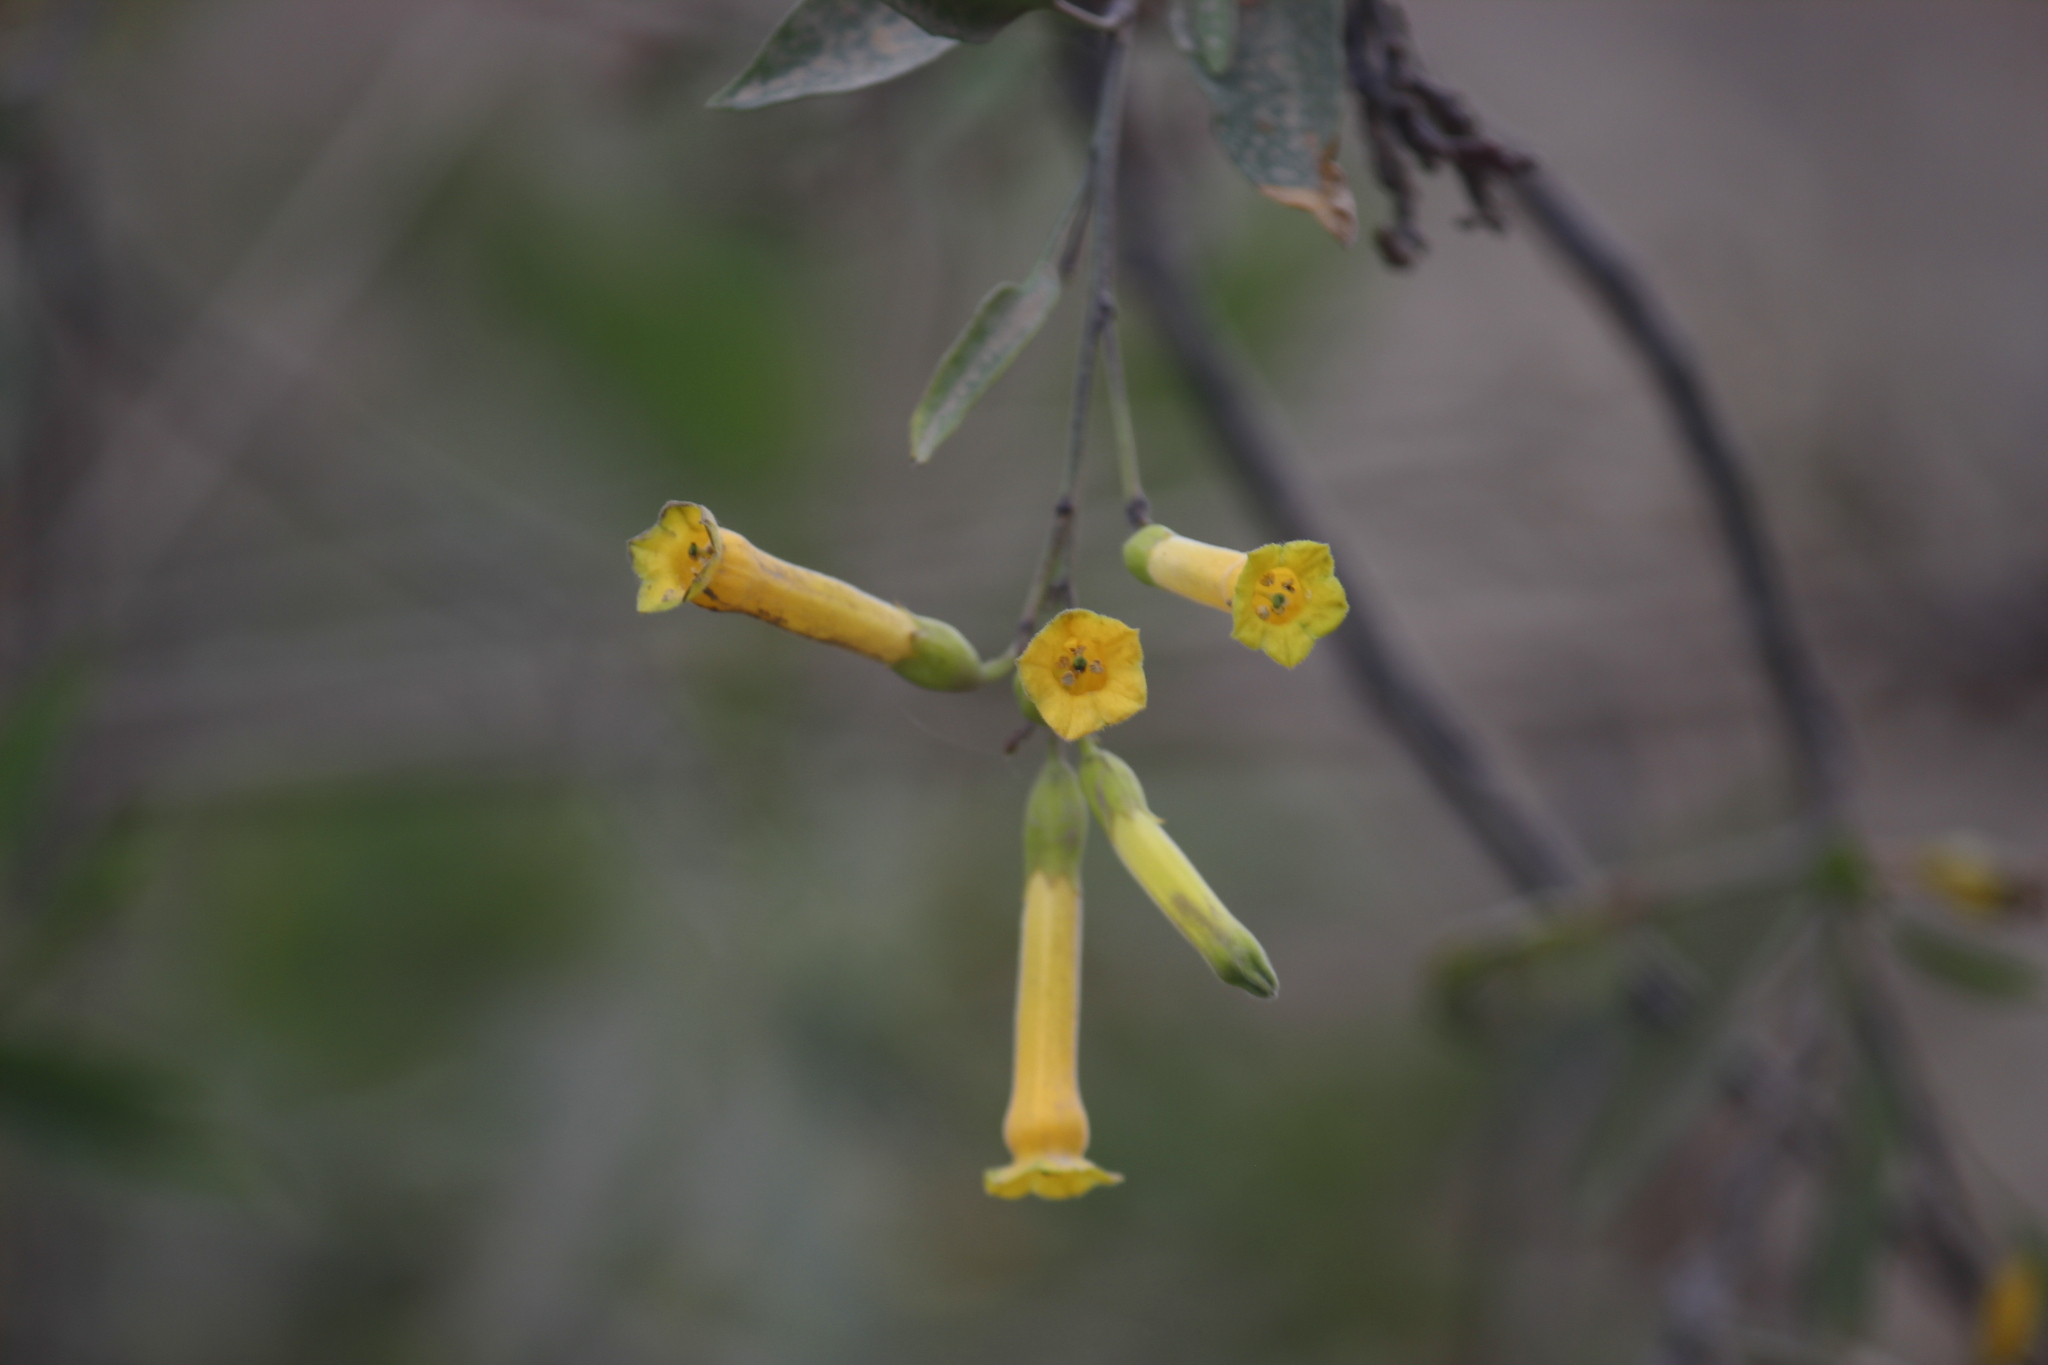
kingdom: Plantae
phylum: Tracheophyta
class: Magnoliopsida
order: Solanales
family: Solanaceae
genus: Nicotiana
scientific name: Nicotiana glauca
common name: Tree tobacco
